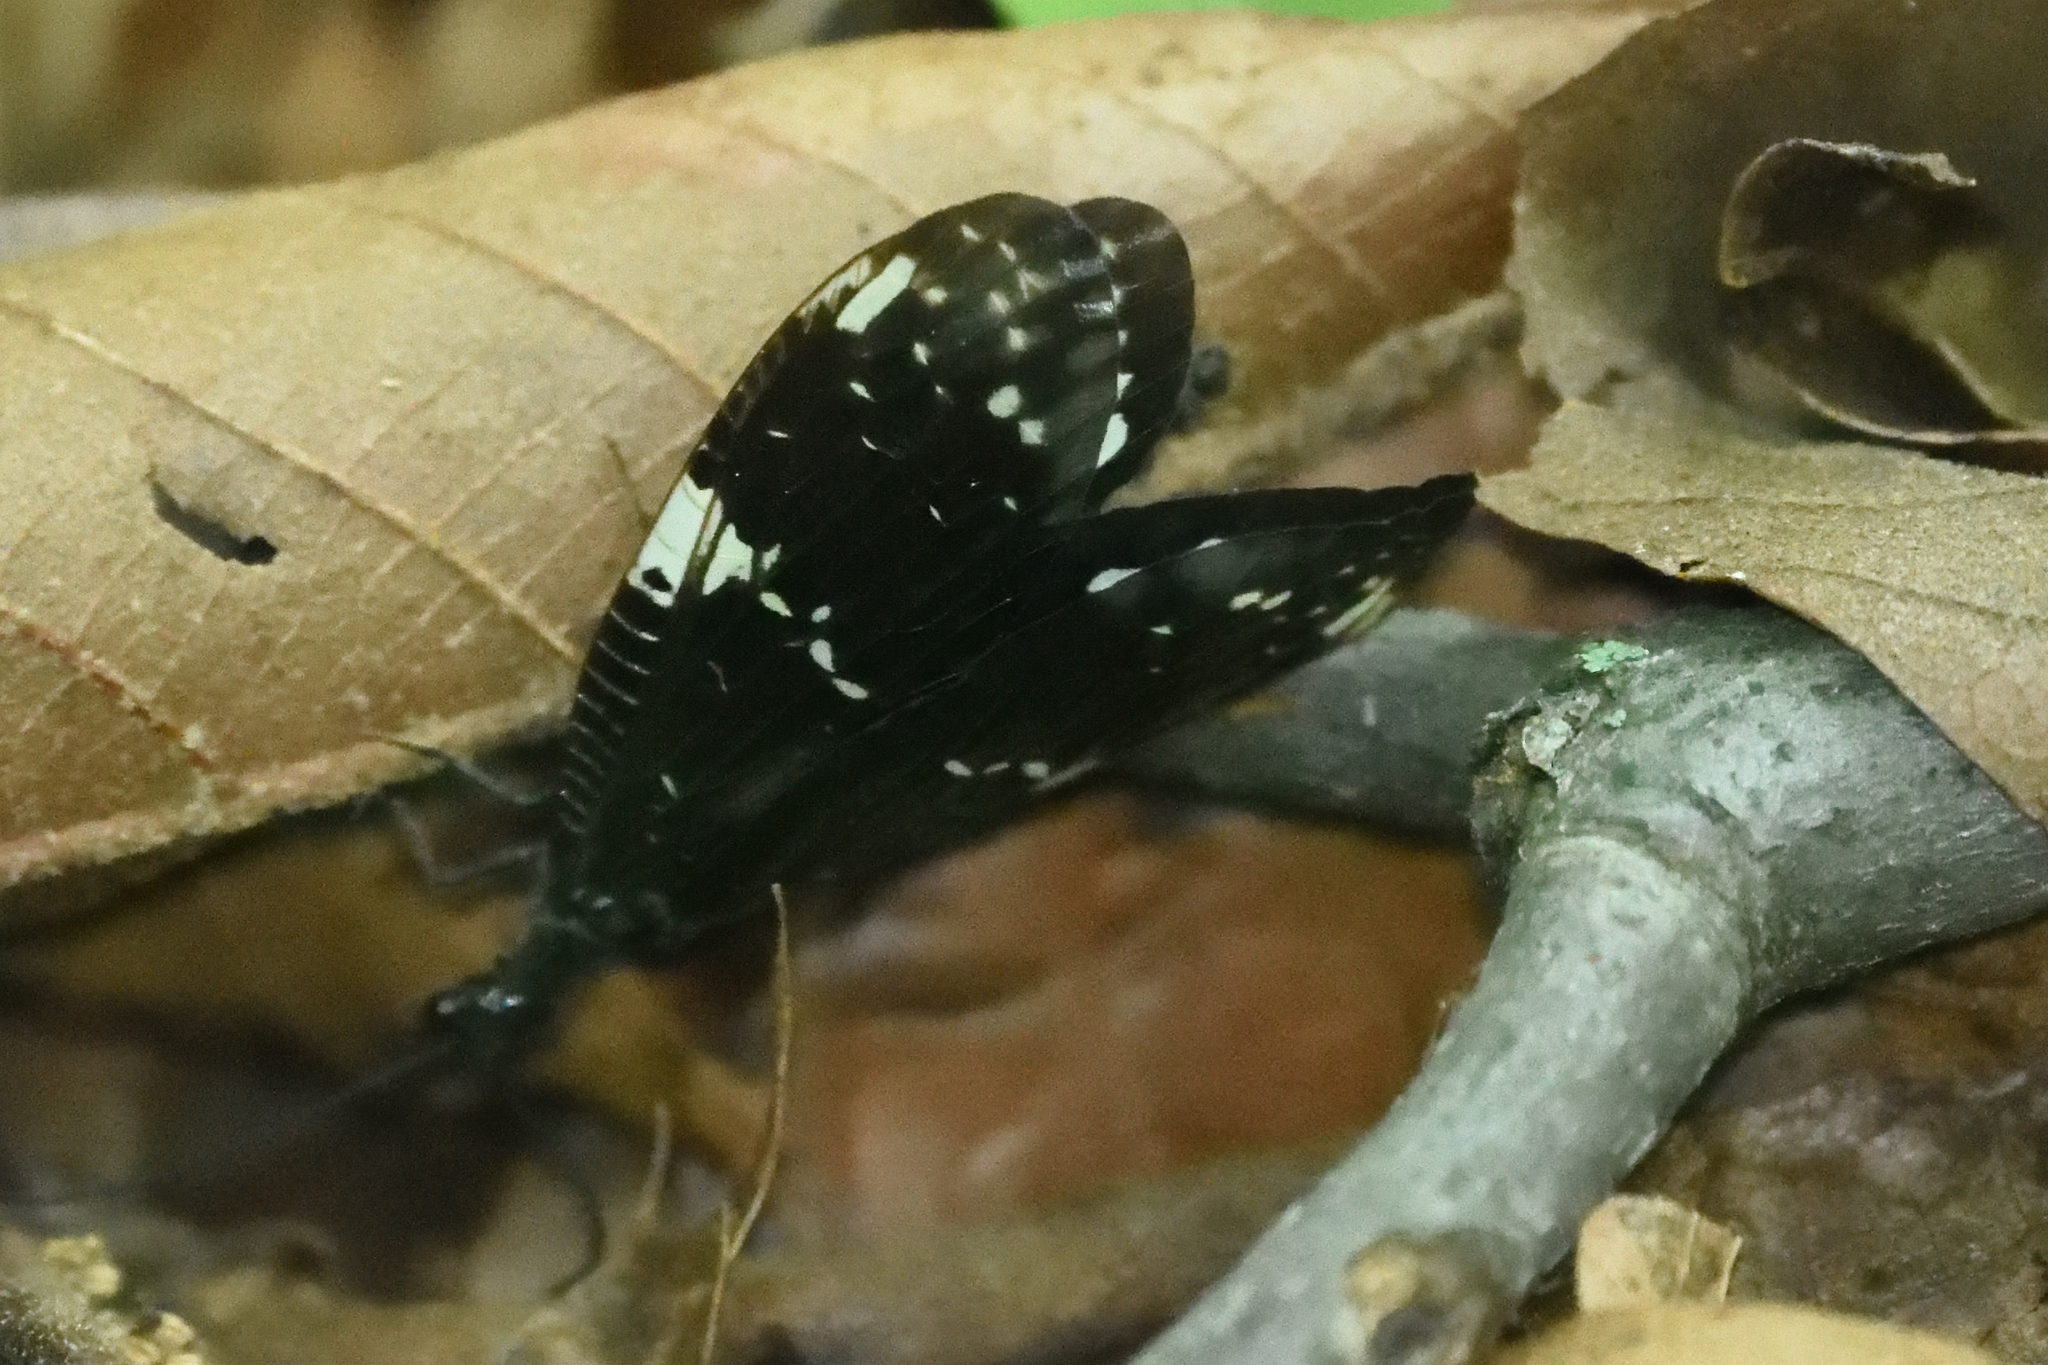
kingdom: Animalia
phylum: Arthropoda
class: Insecta
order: Megaloptera
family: Corydalidae
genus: Nigronia
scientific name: Nigronia serricornis
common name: Serrate dark fishfly
